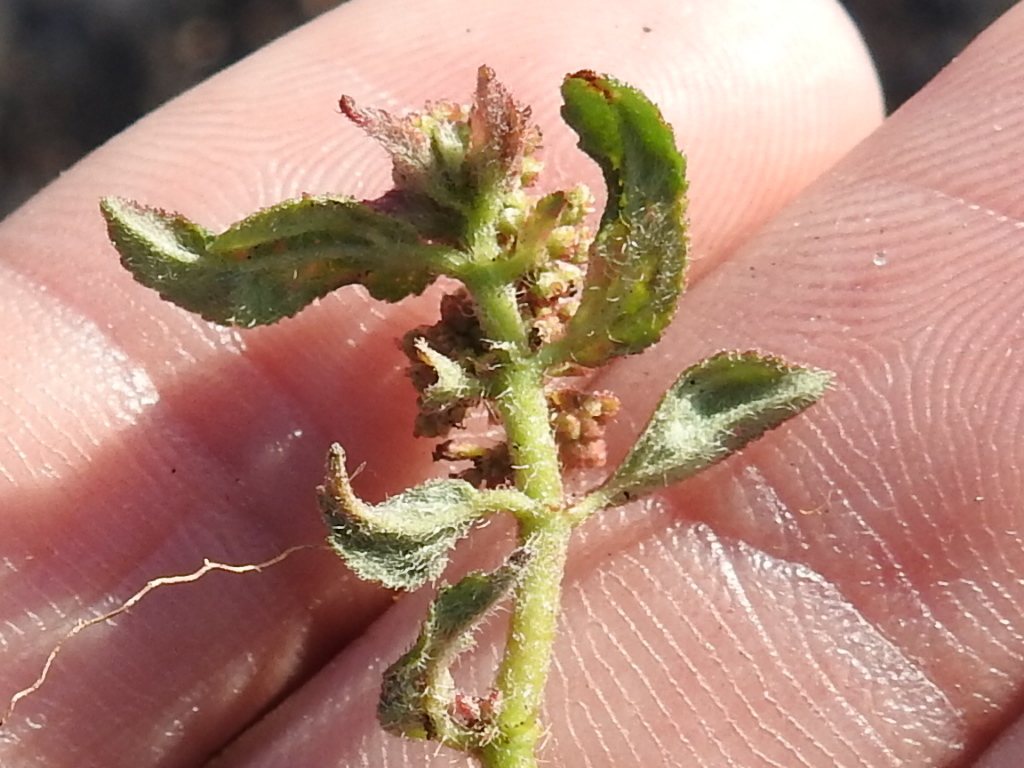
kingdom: Plantae
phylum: Tracheophyta
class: Magnoliopsida
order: Malpighiales
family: Euphorbiaceae
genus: Euphorbia
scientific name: Euphorbia hirta
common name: Pillpod sandmat
